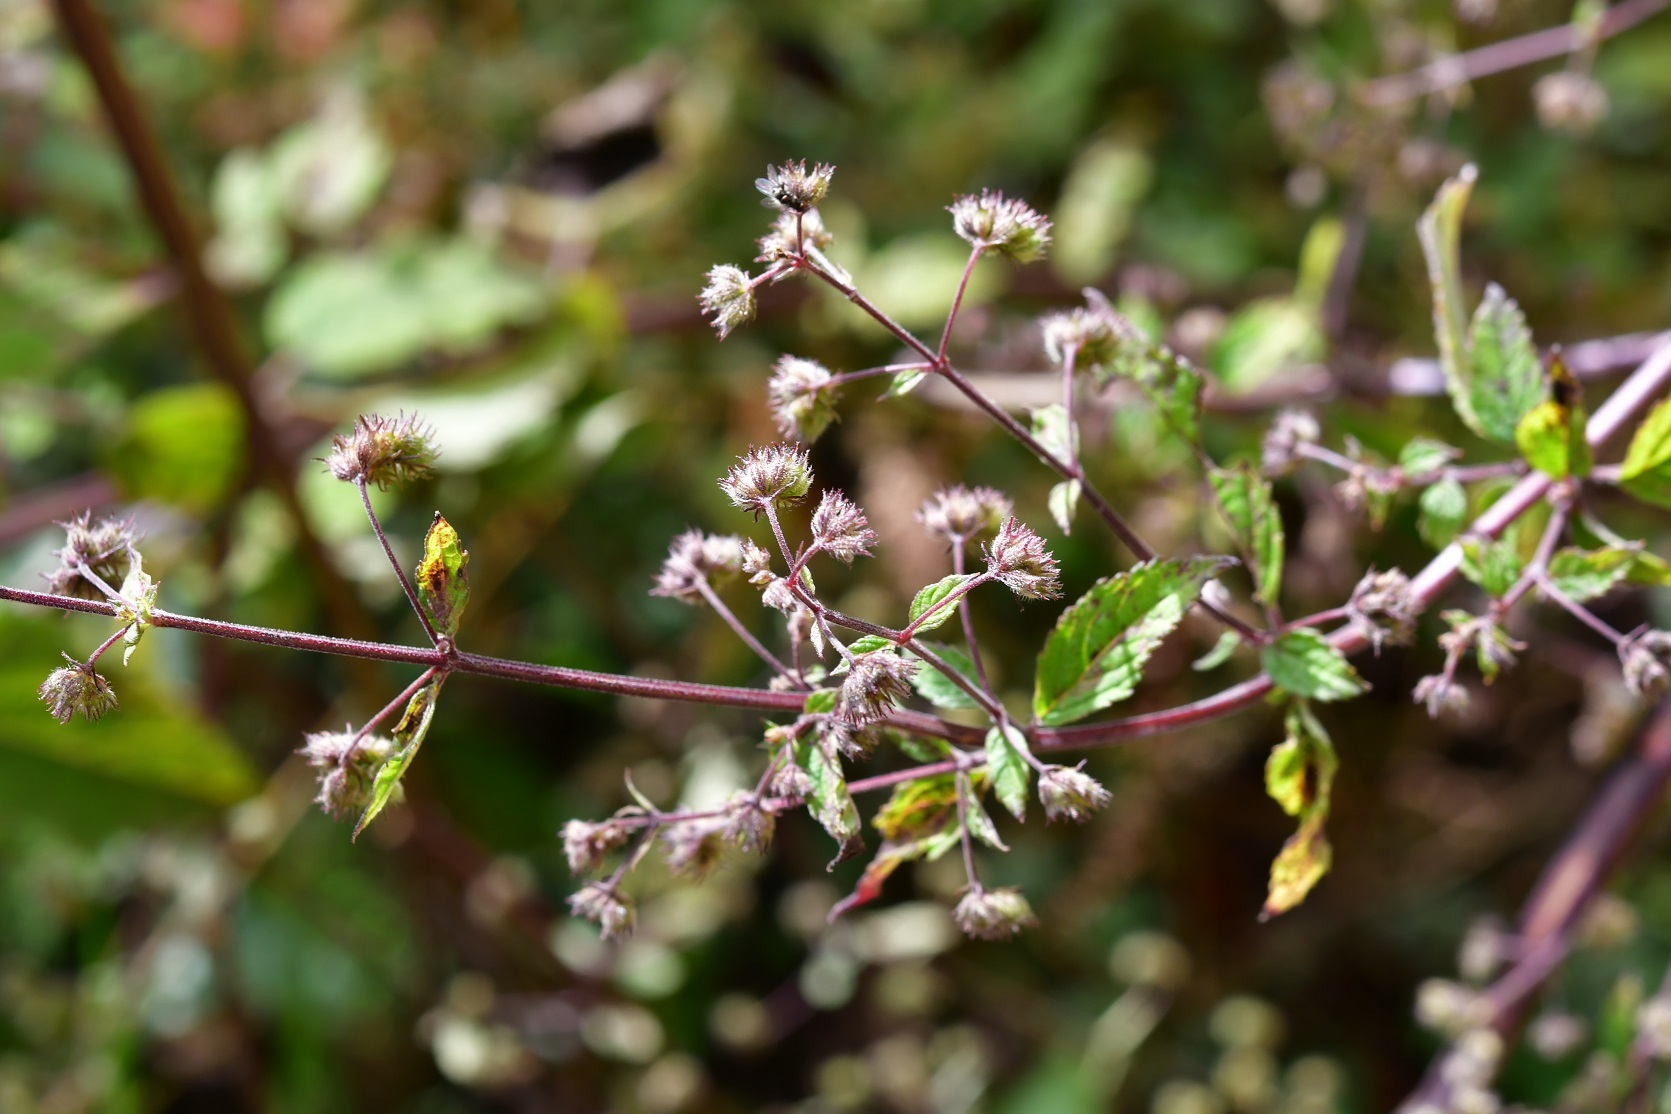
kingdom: Plantae
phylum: Tracheophyta
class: Magnoliopsida
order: Lamiales
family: Lamiaceae
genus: Mesosphaerum
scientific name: Mesosphaerum urticoides
